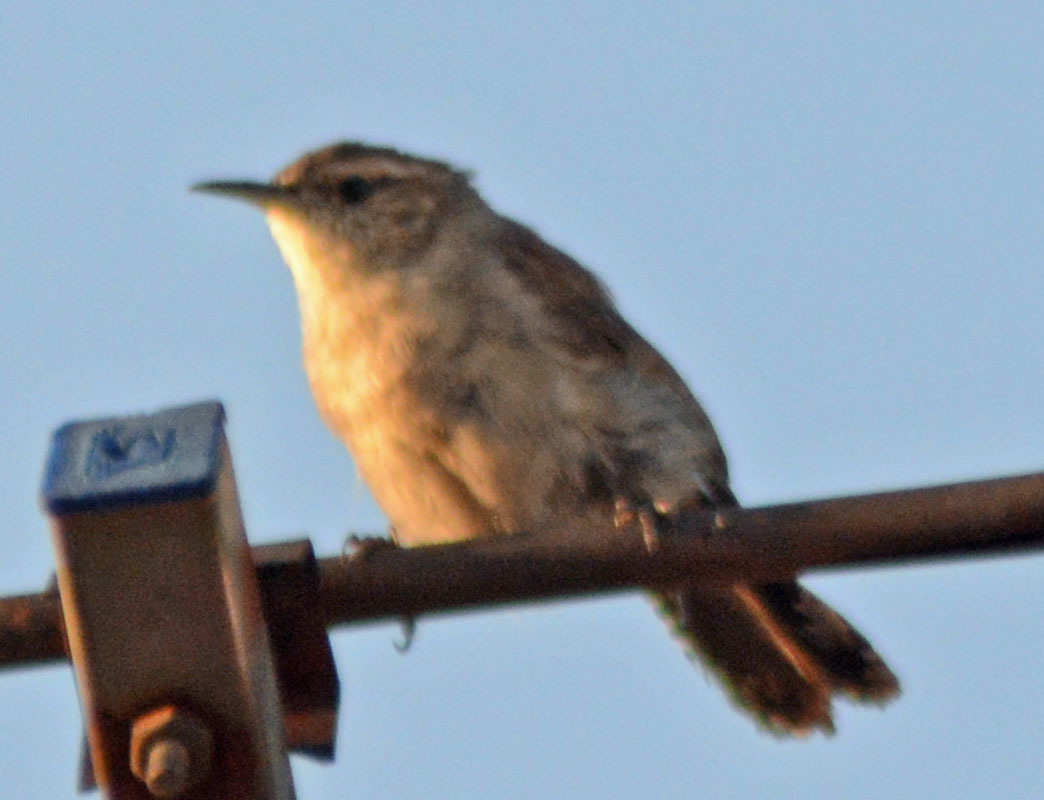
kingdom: Animalia
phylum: Chordata
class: Aves
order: Passeriformes
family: Troglodytidae
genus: Thryomanes
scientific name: Thryomanes bewickii
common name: Bewick's wren
